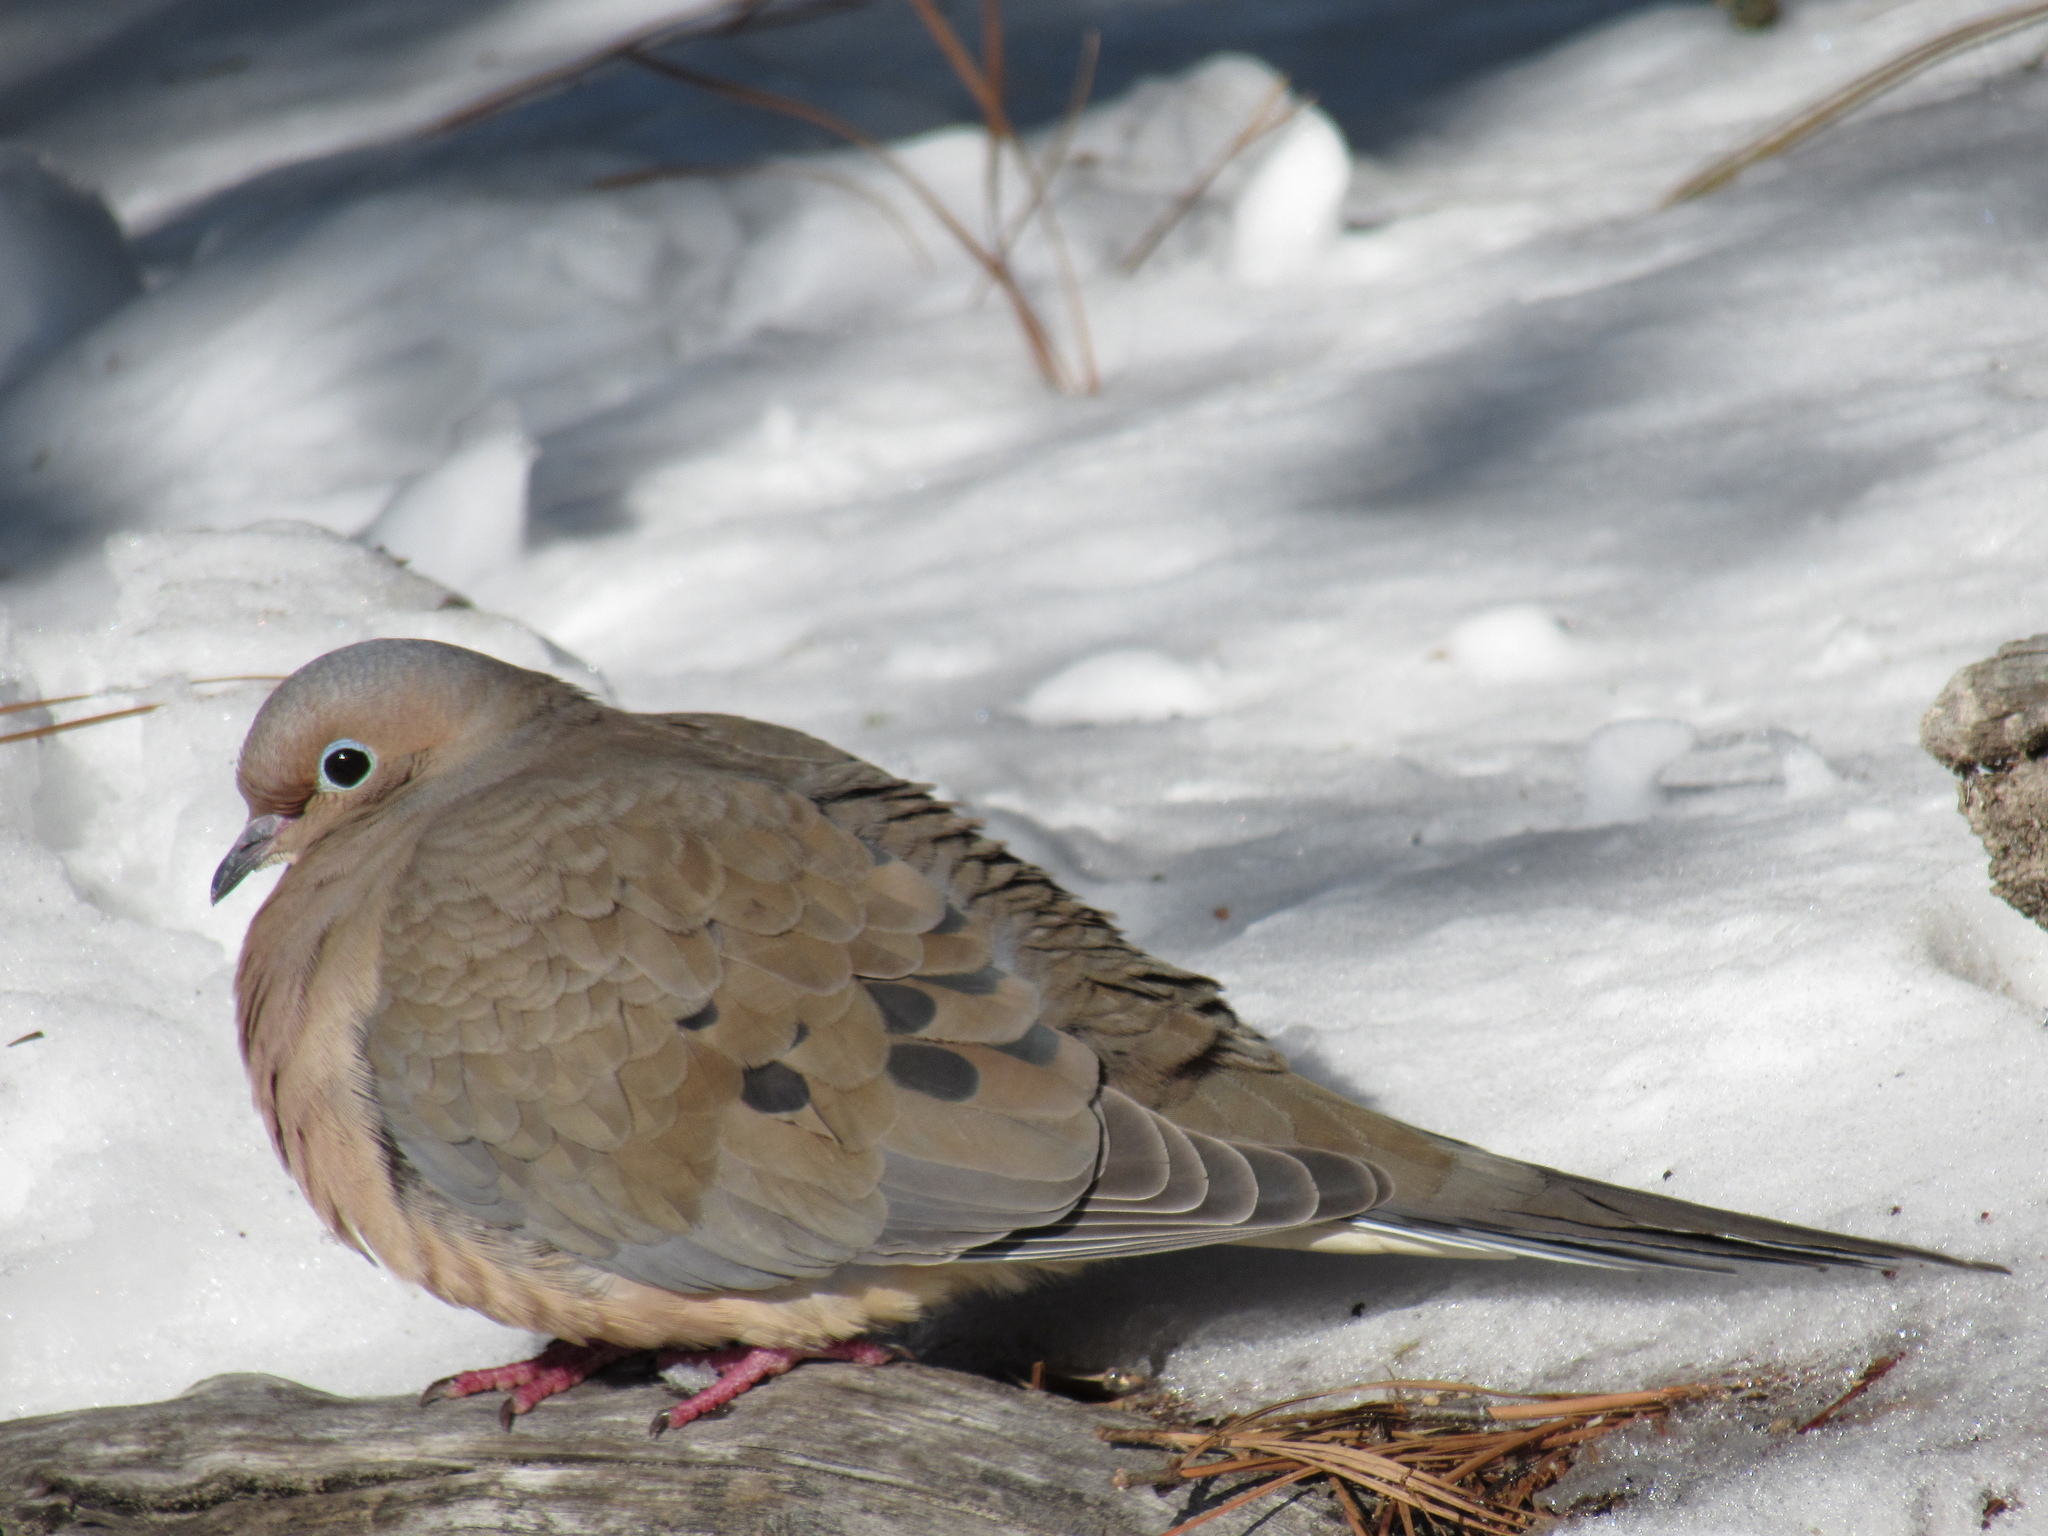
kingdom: Animalia
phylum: Chordata
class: Aves
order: Columbiformes
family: Columbidae
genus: Zenaida
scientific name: Zenaida macroura
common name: Mourning dove
